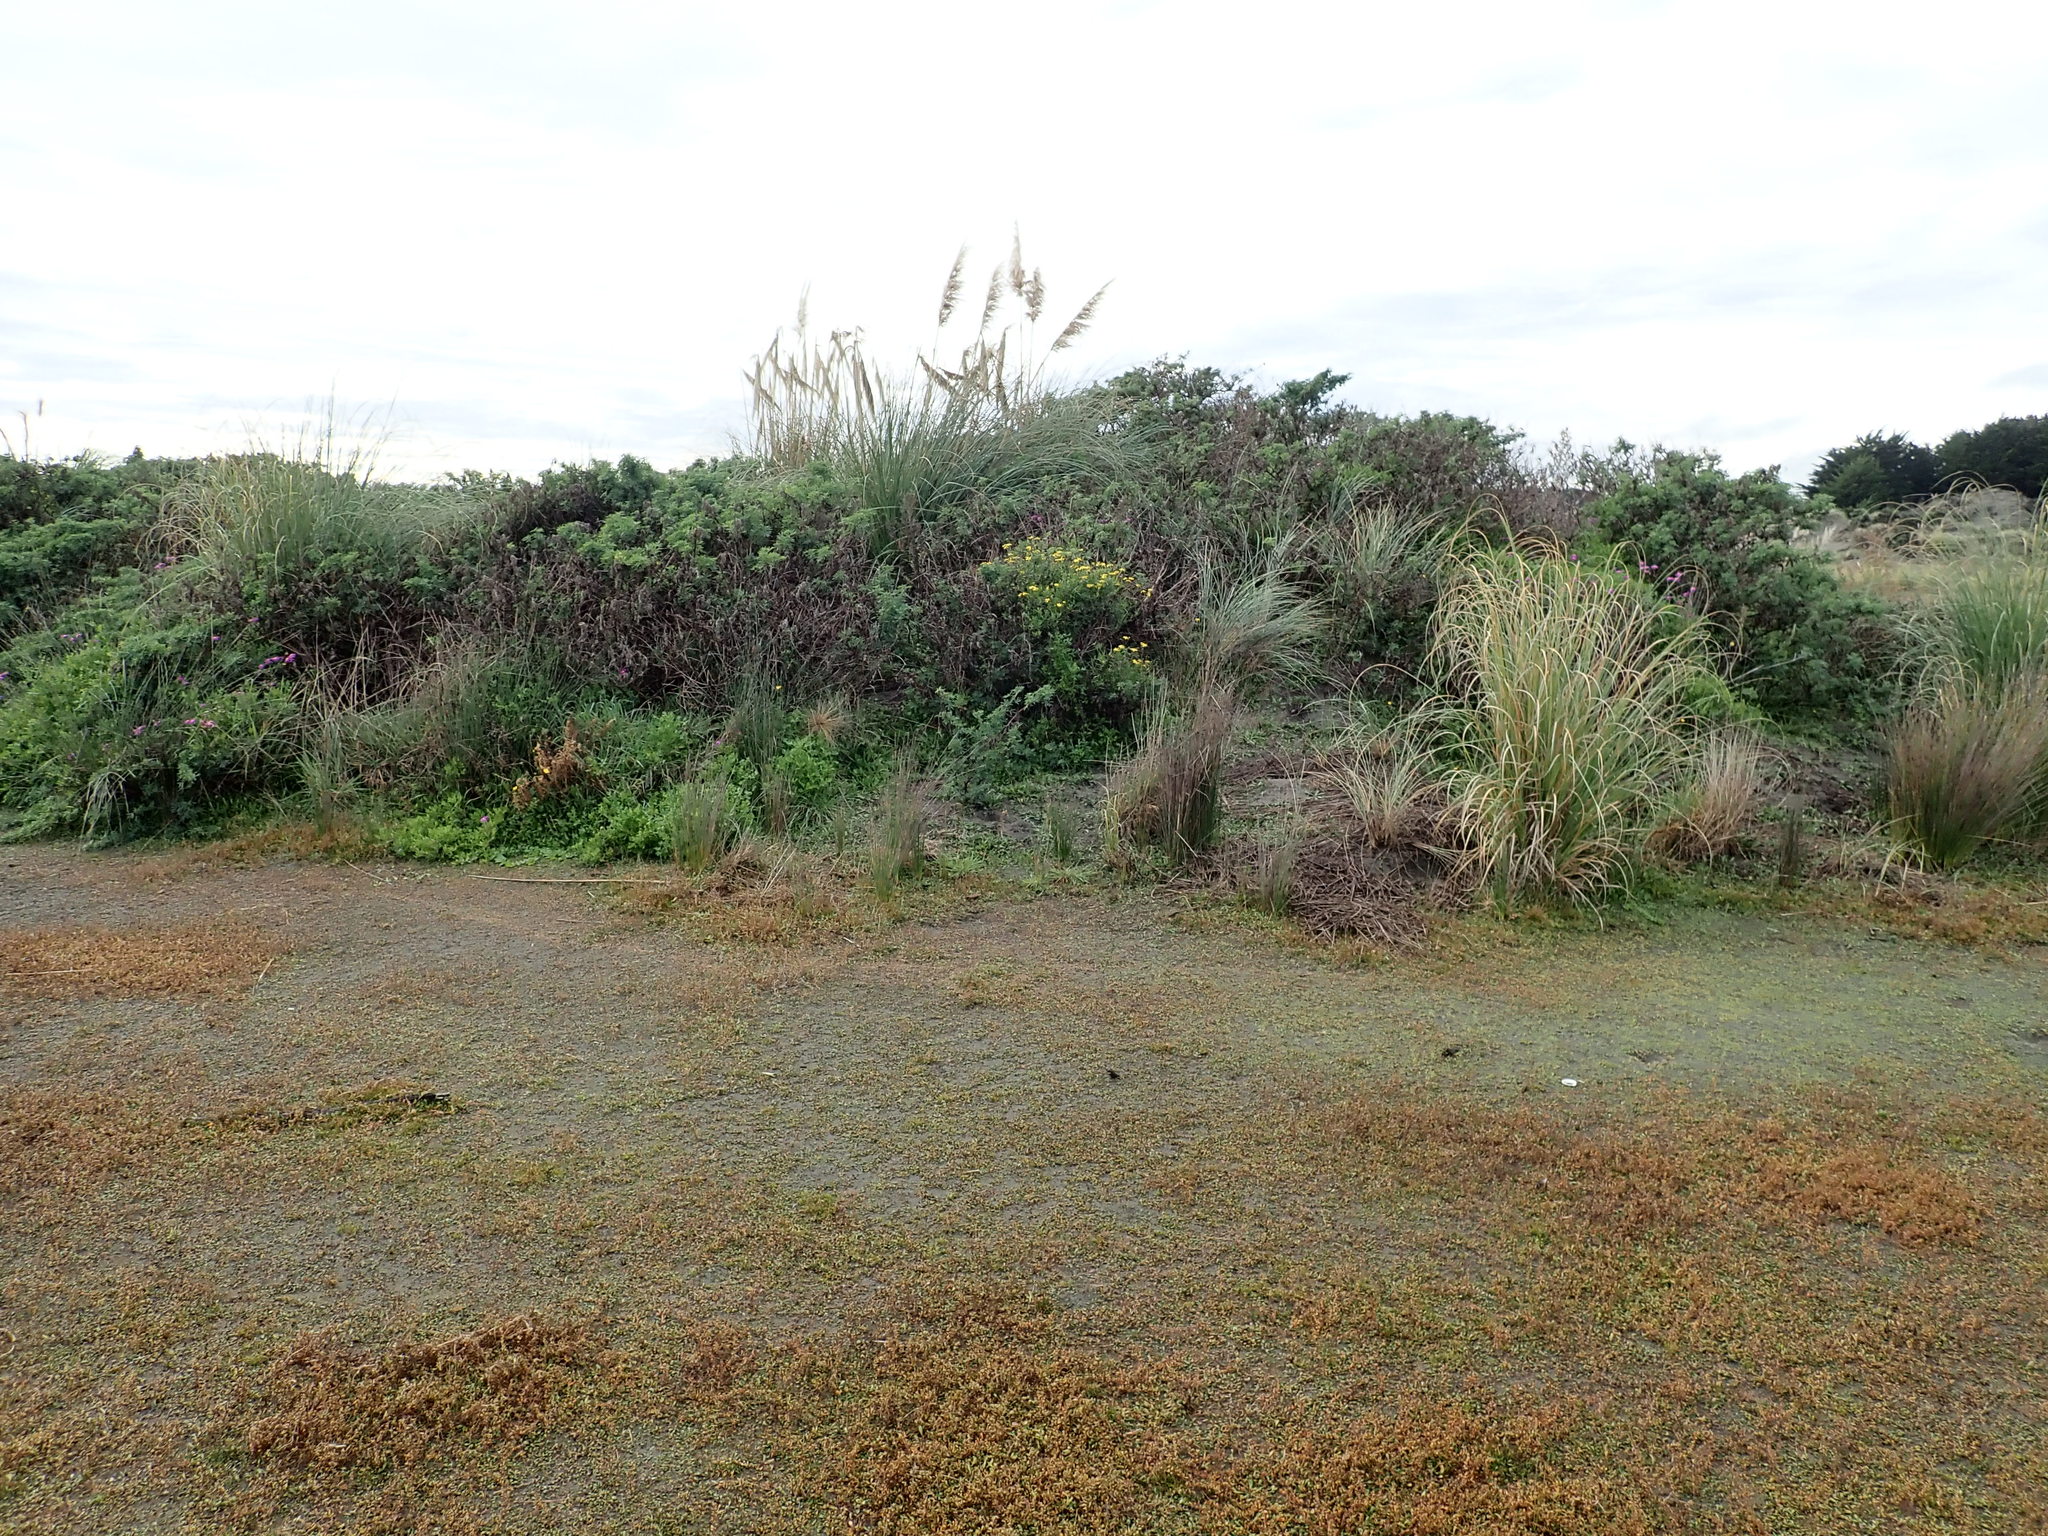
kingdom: Plantae
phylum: Tracheophyta
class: Magnoliopsida
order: Asterales
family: Asteraceae
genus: Senecio
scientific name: Senecio skirrhodon
